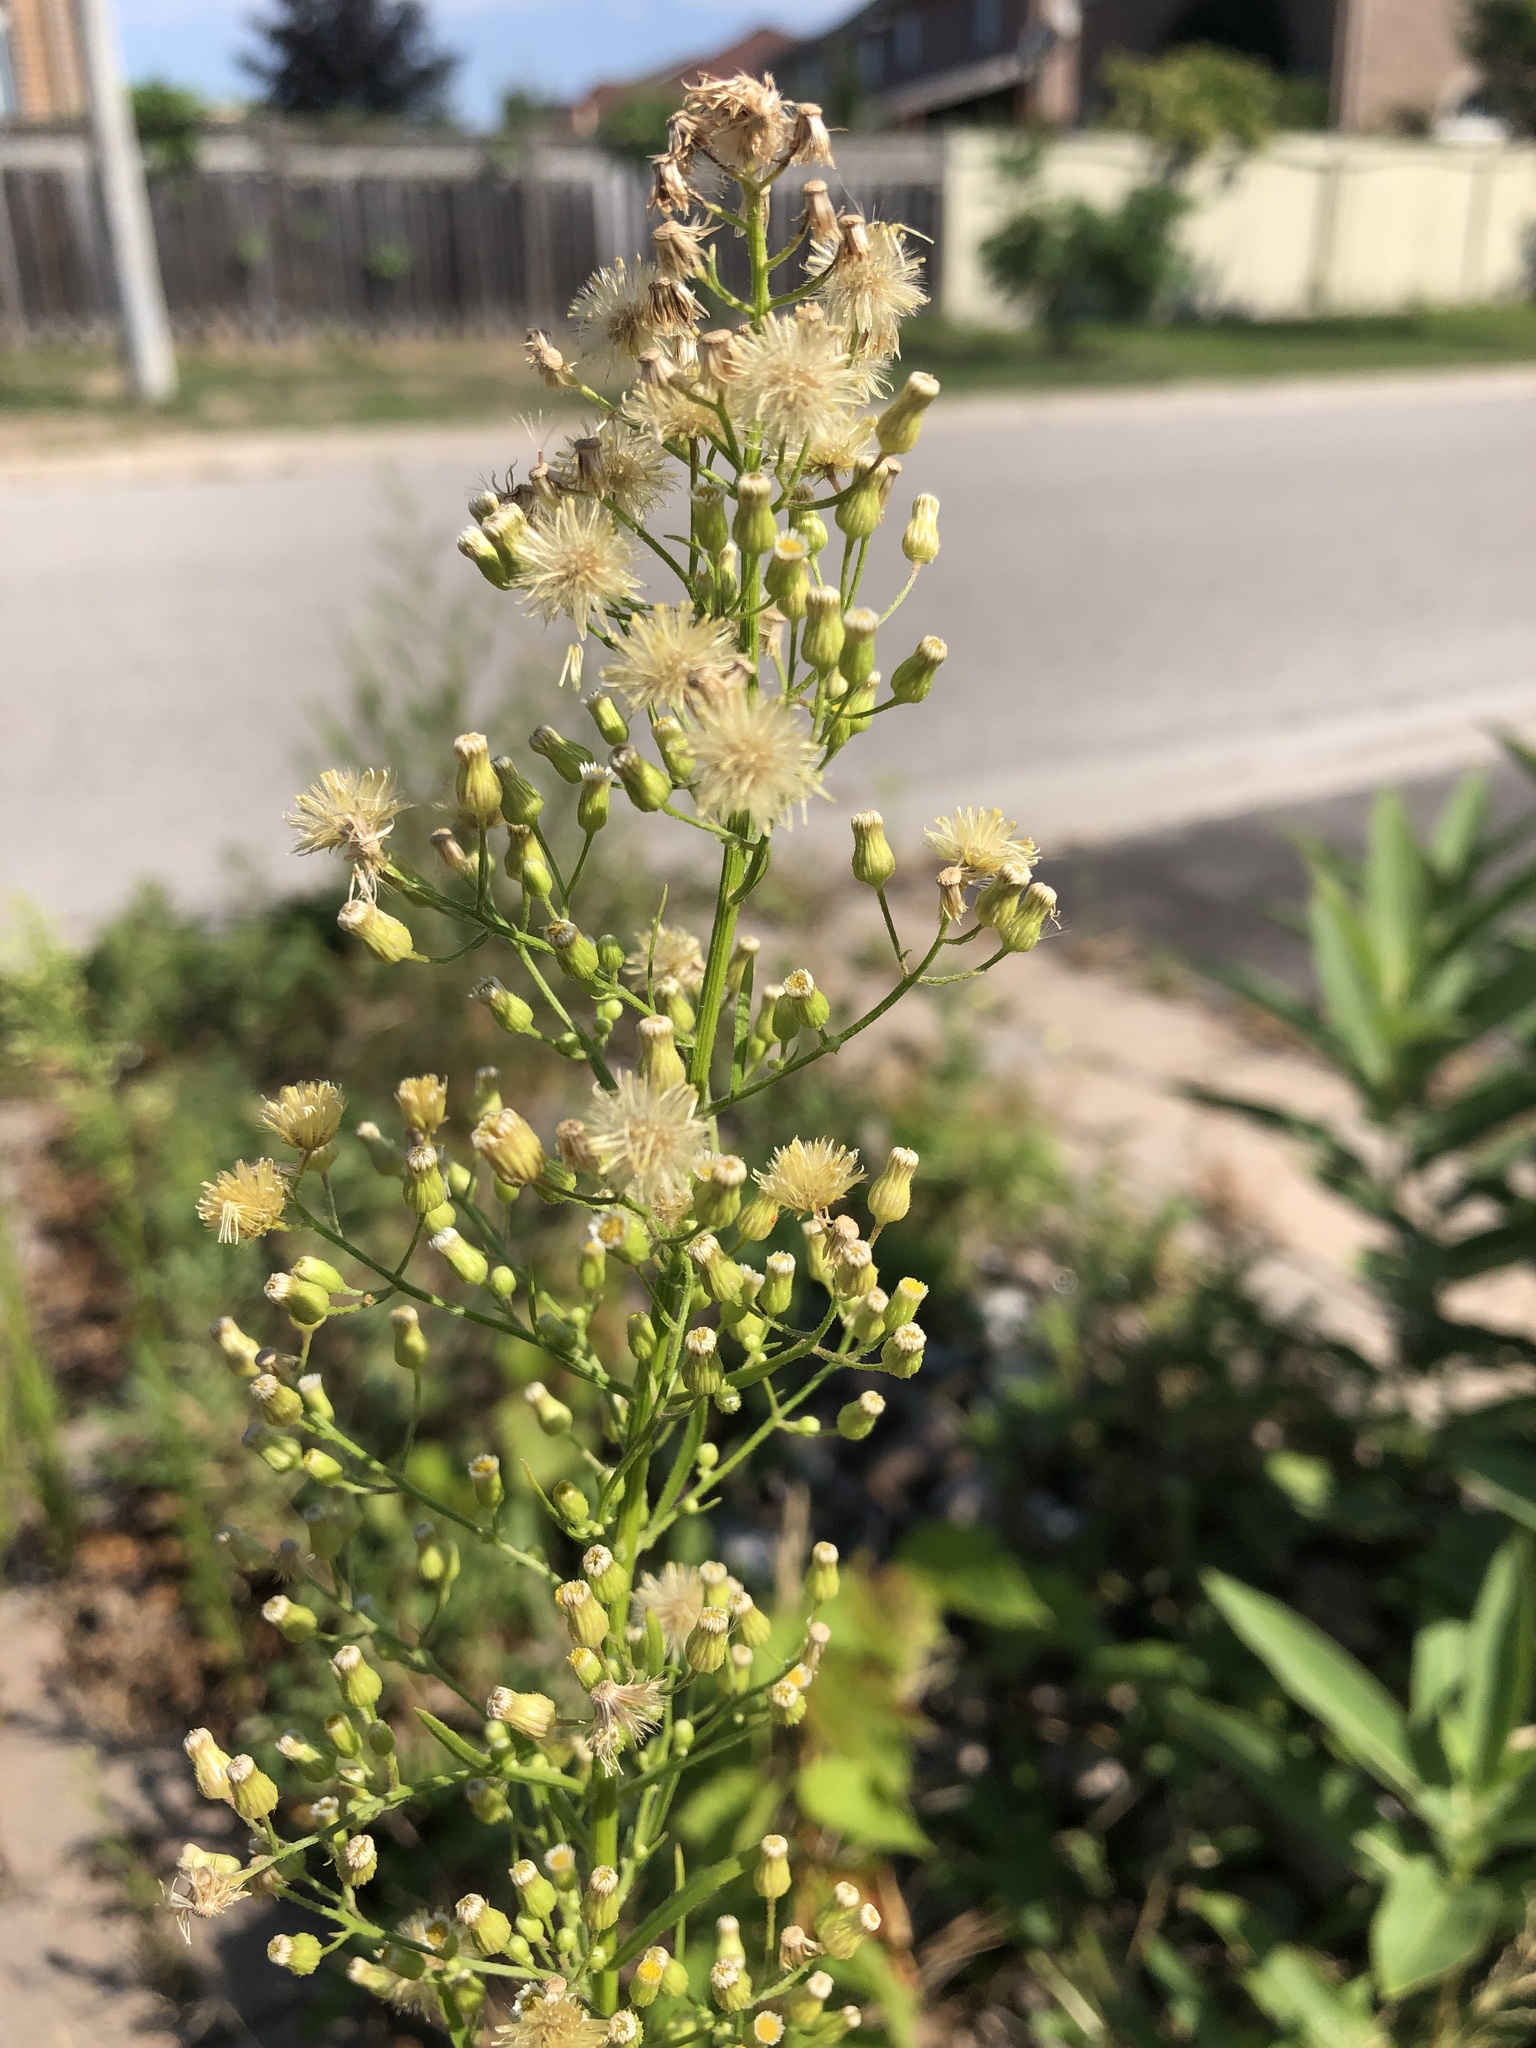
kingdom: Plantae
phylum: Tracheophyta
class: Magnoliopsida
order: Asterales
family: Asteraceae
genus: Erigeron
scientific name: Erigeron canadensis
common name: Canadian fleabane
